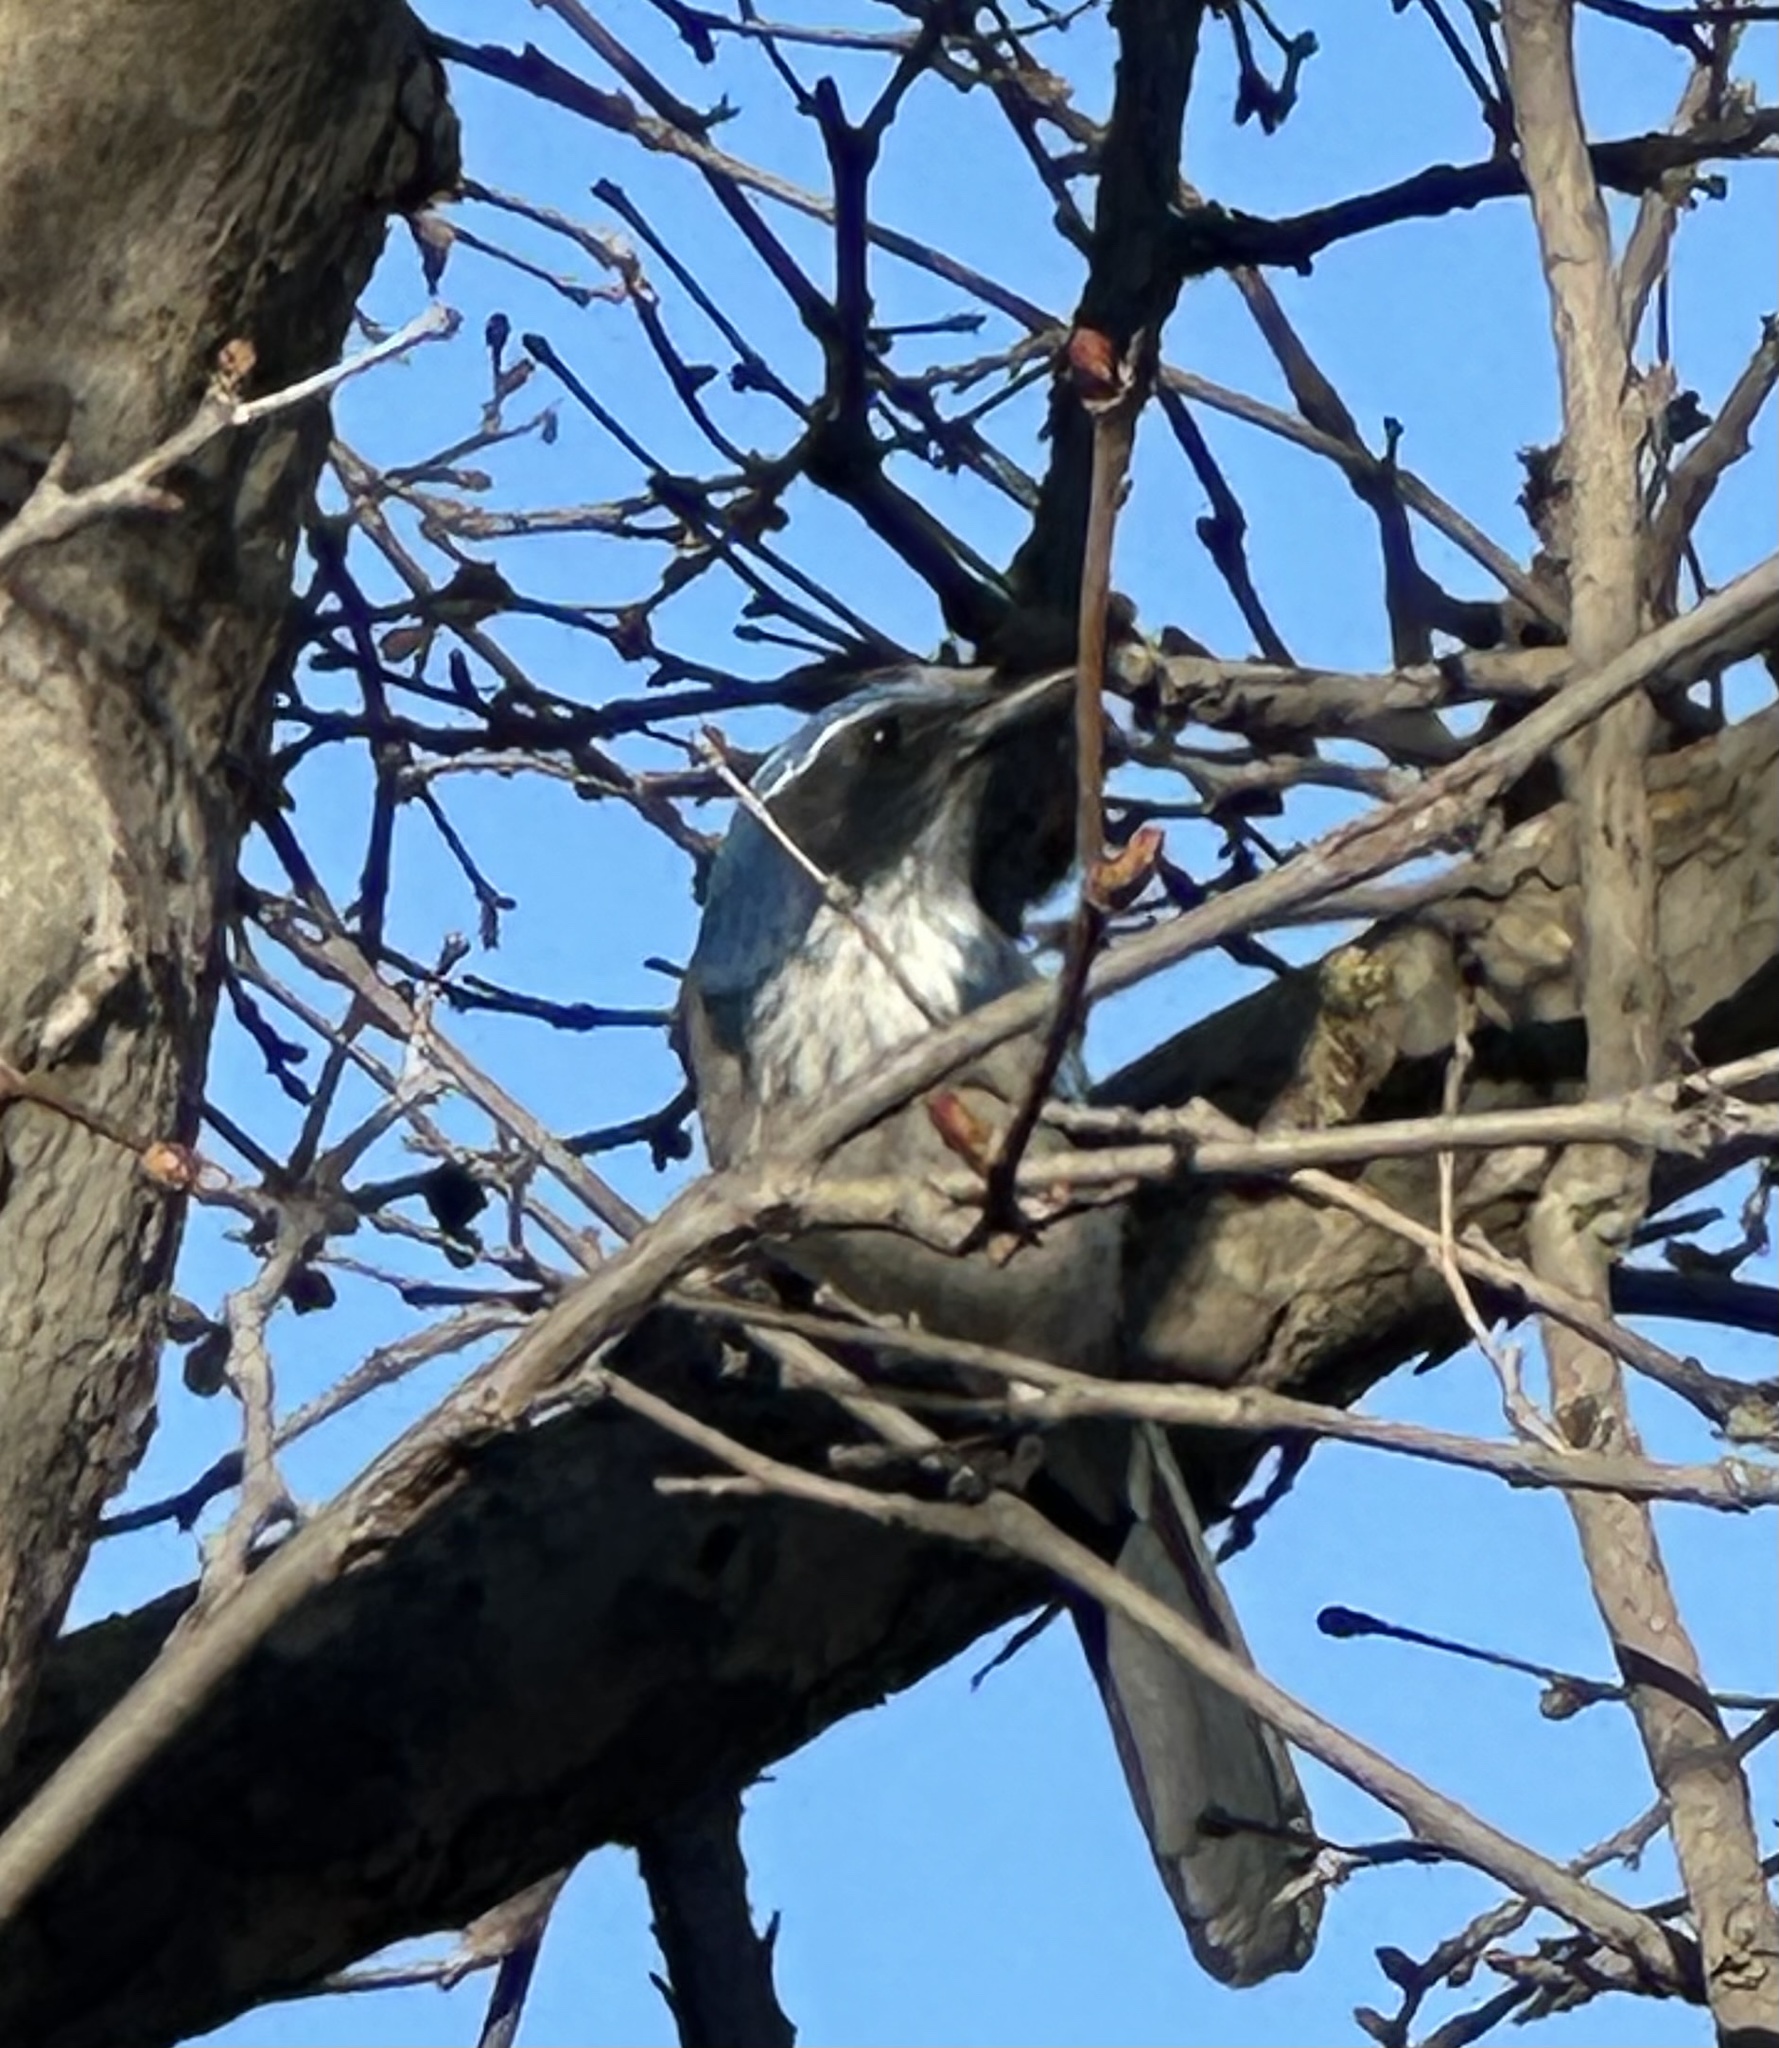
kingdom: Animalia
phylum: Chordata
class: Aves
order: Passeriformes
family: Corvidae
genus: Aphelocoma
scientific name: Aphelocoma californica
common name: California scrub-jay
